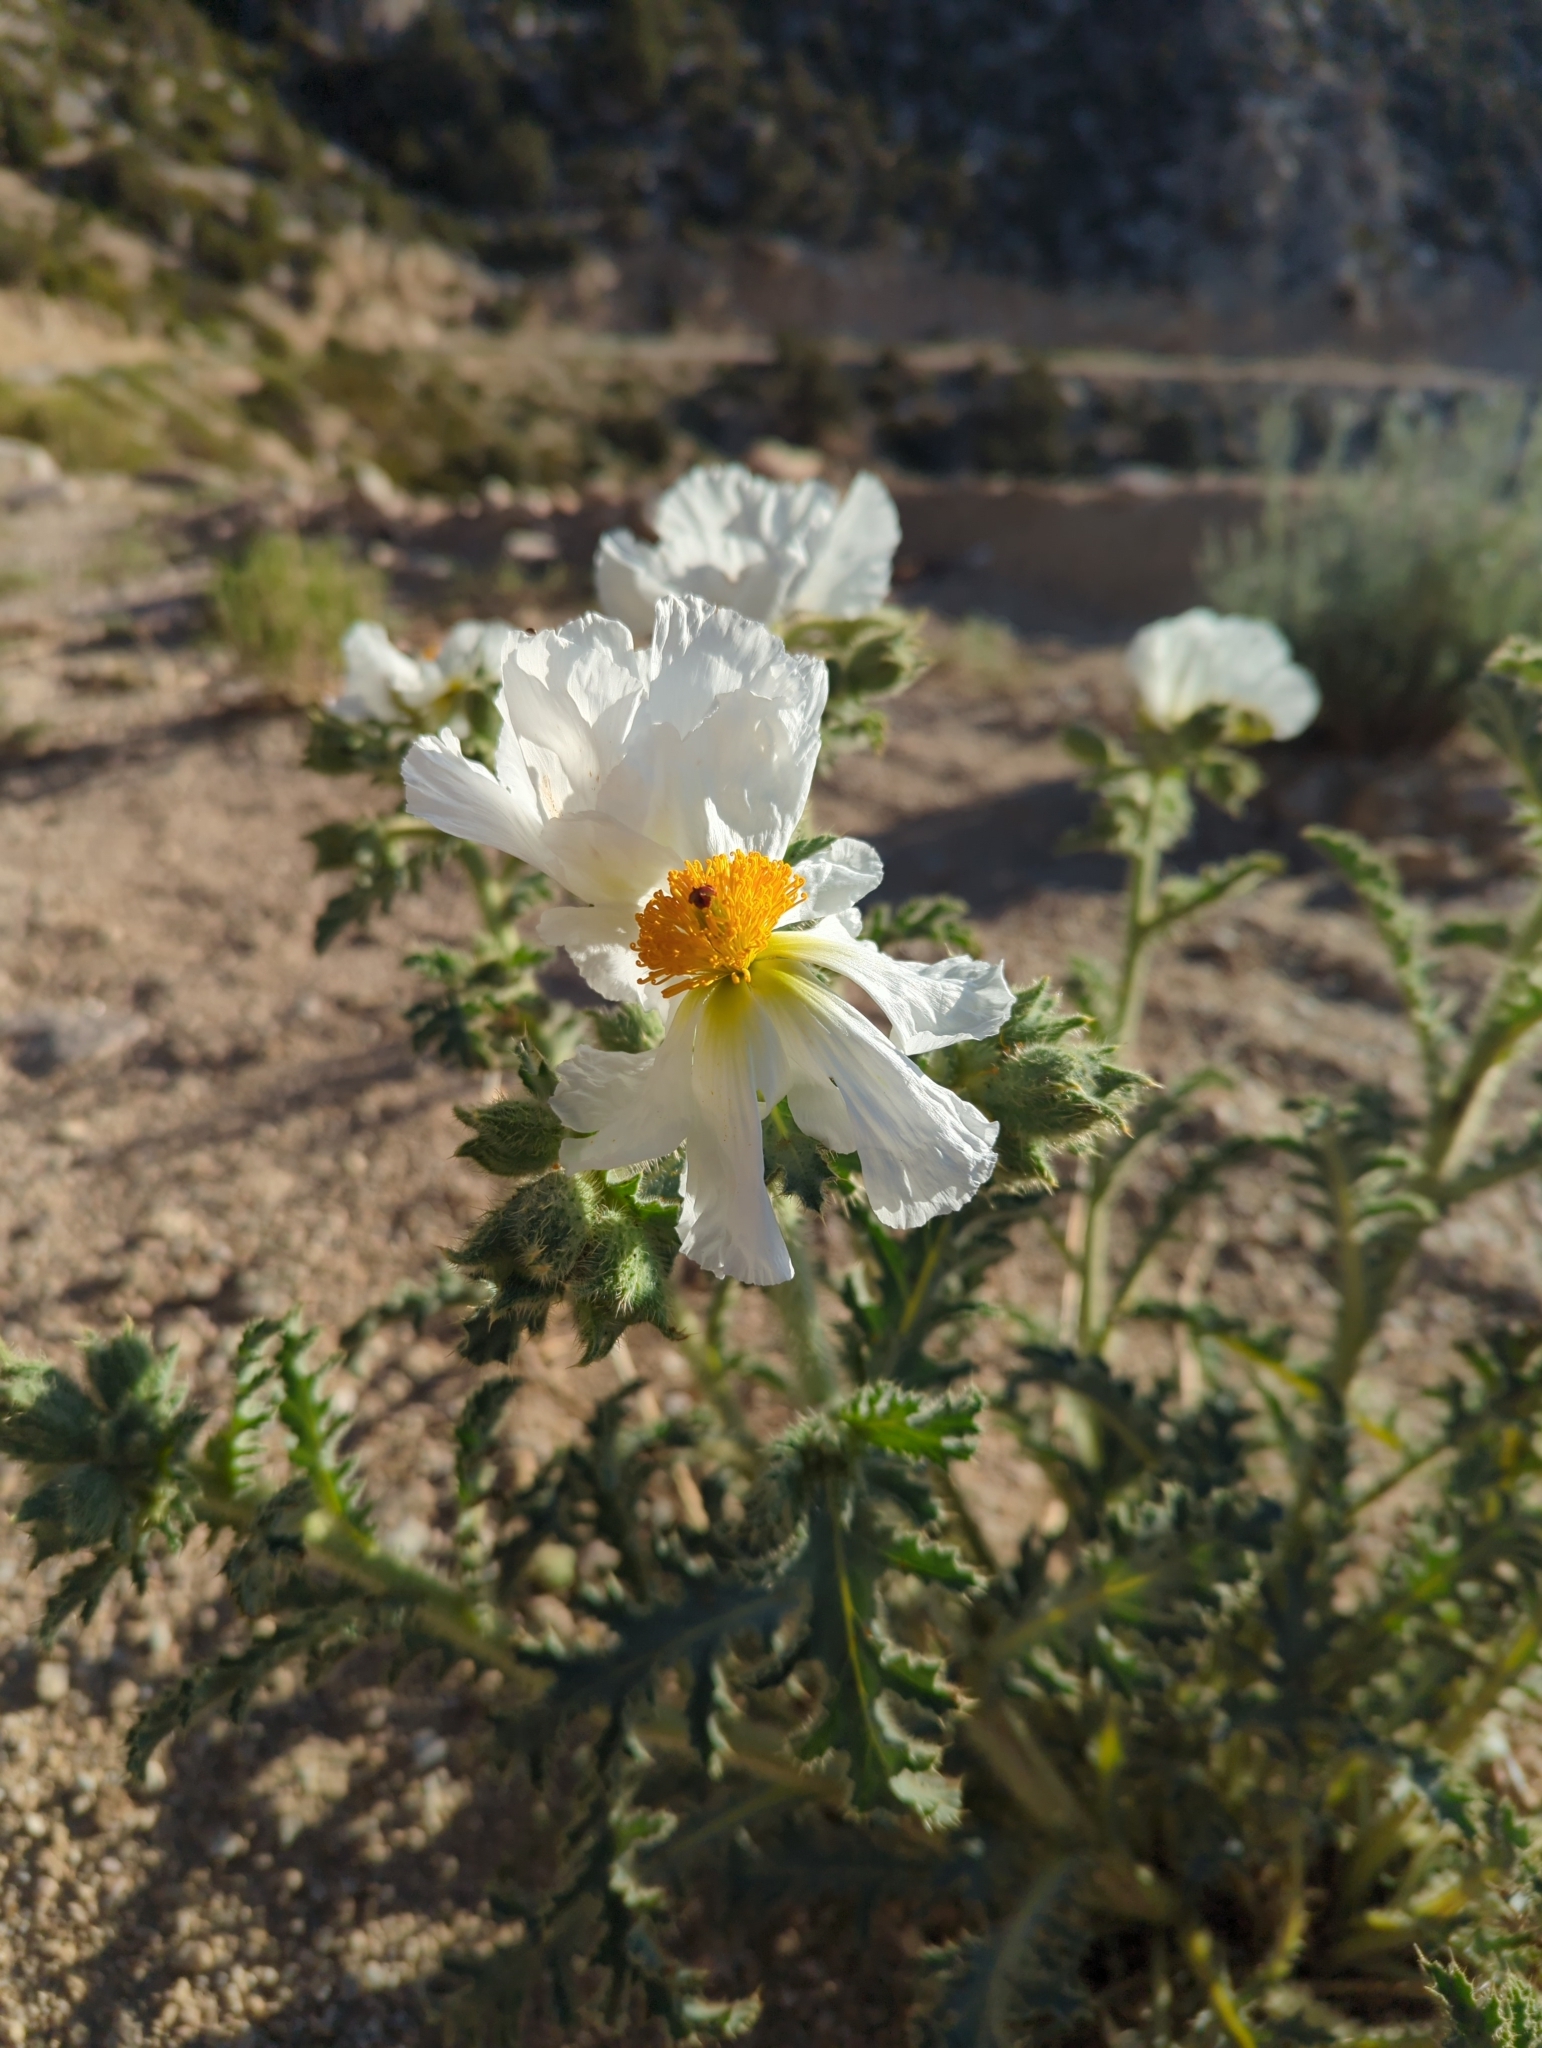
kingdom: Plantae
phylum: Tracheophyta
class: Magnoliopsida
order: Ranunculales
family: Papaveraceae
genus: Argemone
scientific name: Argemone munita
